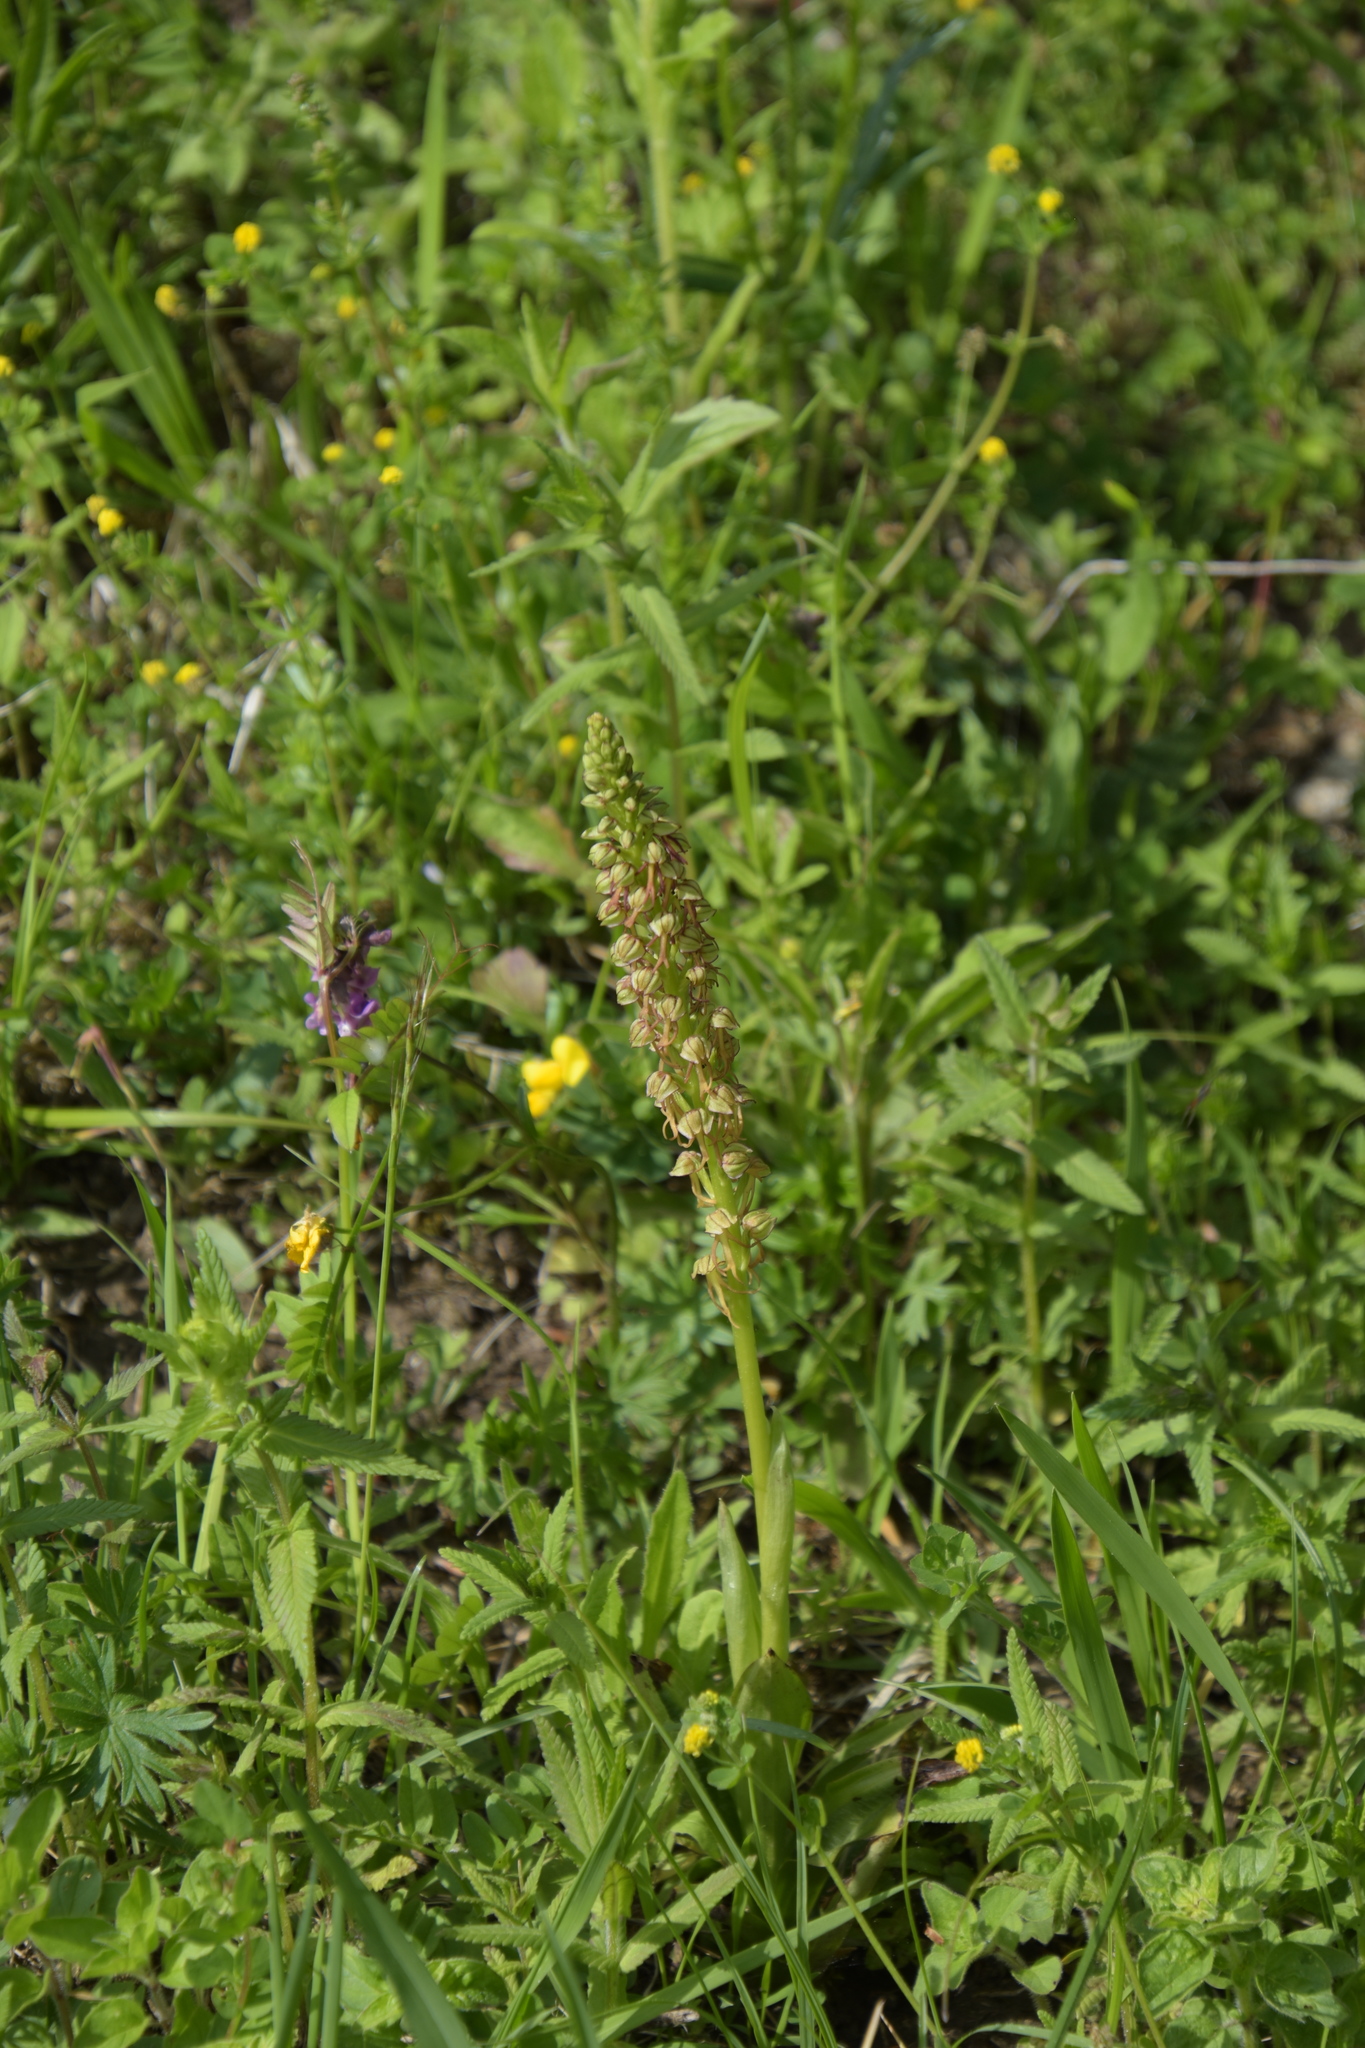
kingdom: Plantae
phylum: Tracheophyta
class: Liliopsida
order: Asparagales
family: Orchidaceae
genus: Orchis
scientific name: Orchis anthropophora
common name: Man orchid
